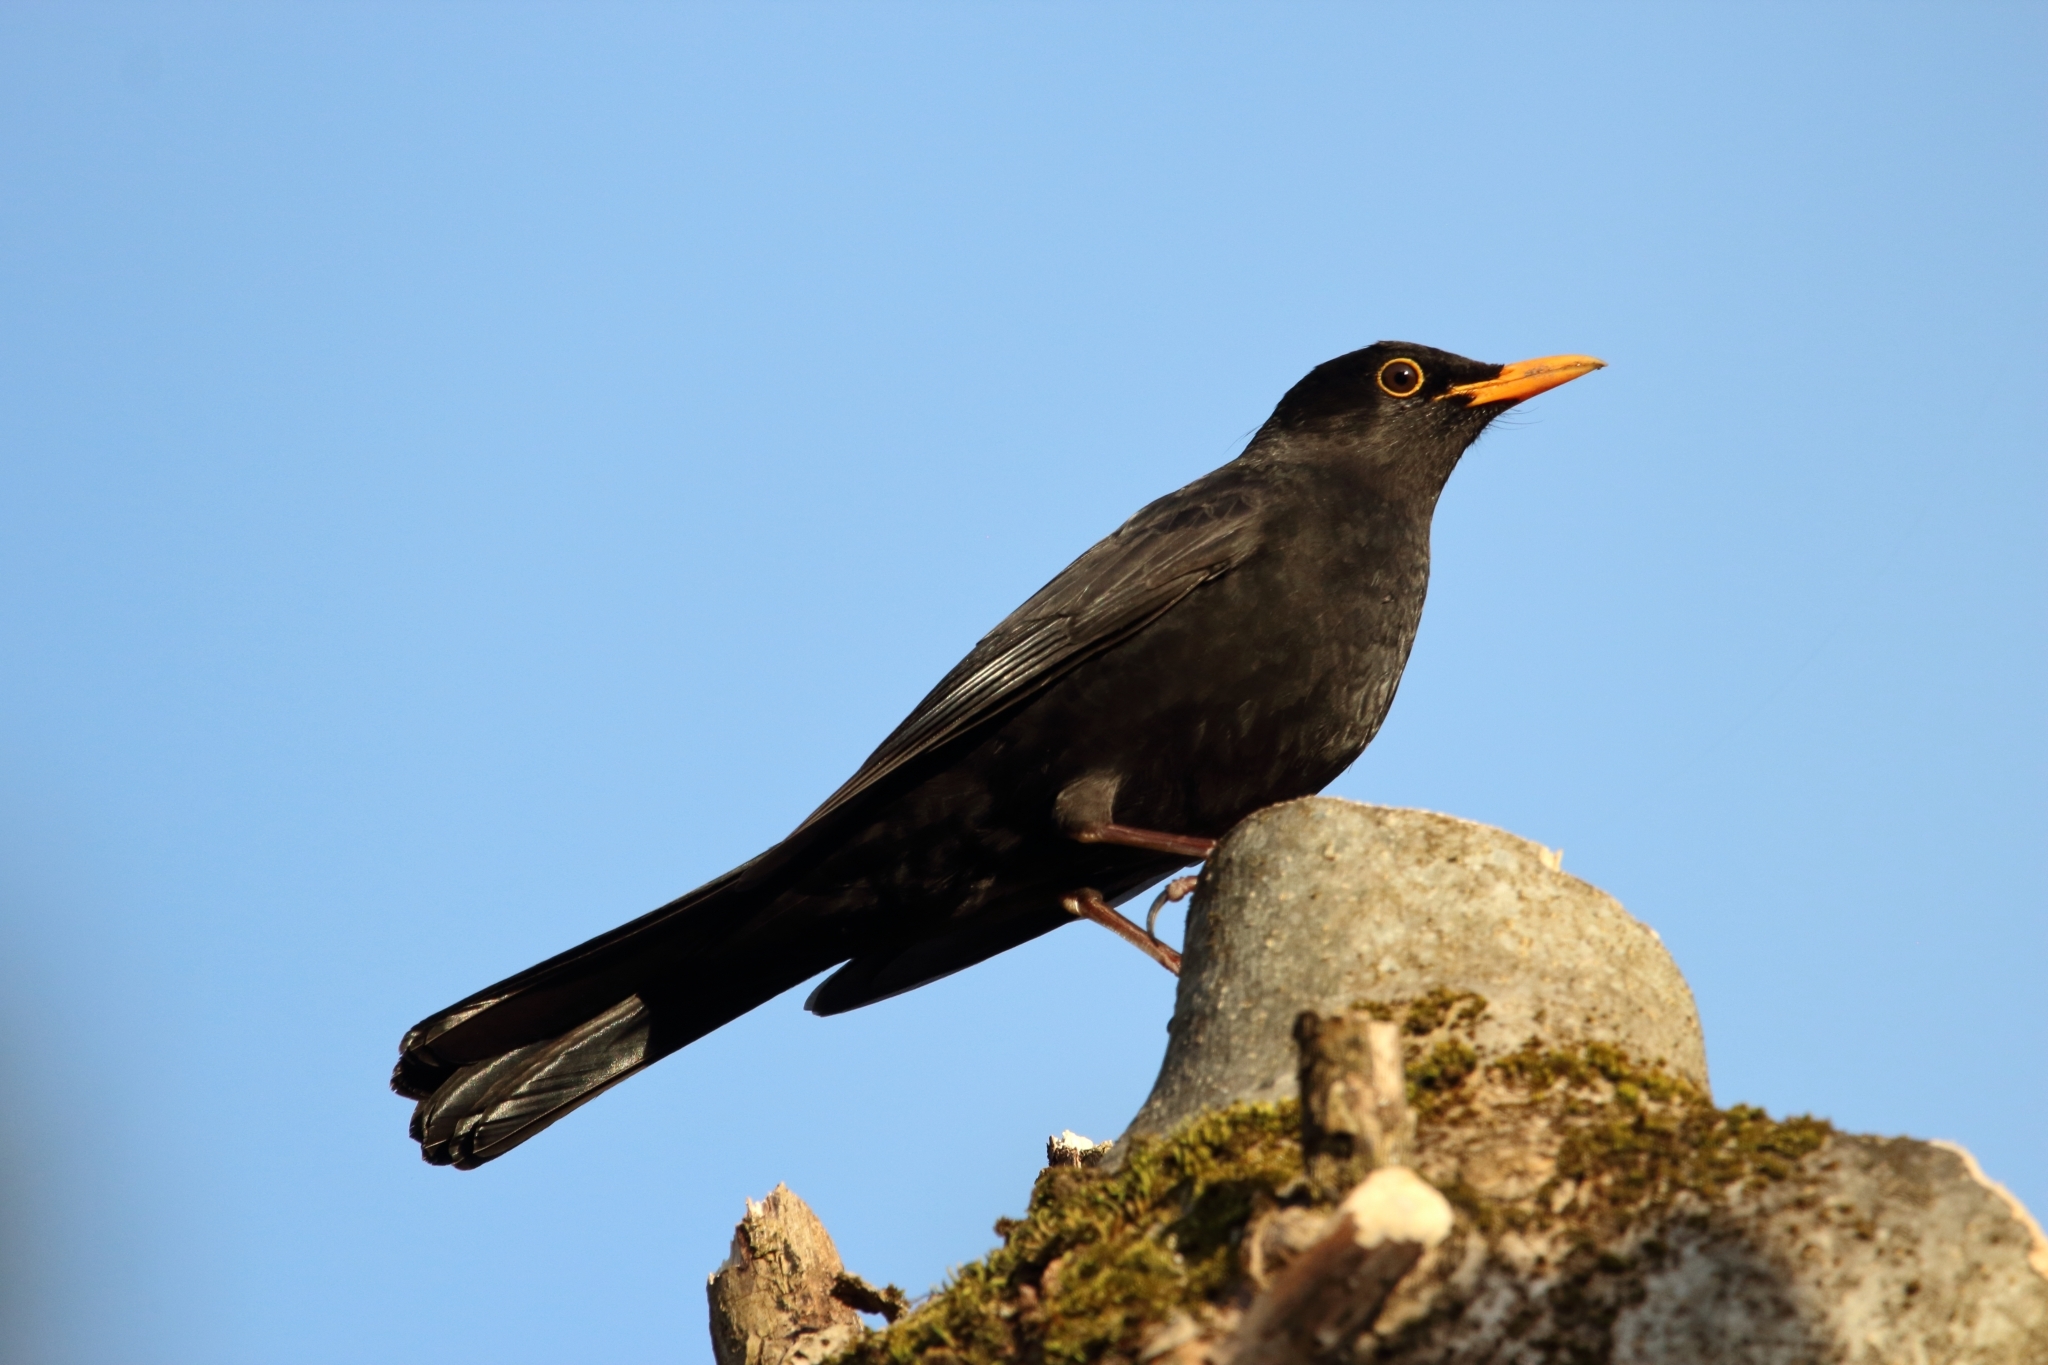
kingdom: Animalia
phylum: Chordata
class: Aves
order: Passeriformes
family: Turdidae
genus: Turdus
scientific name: Turdus merula
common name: Common blackbird
